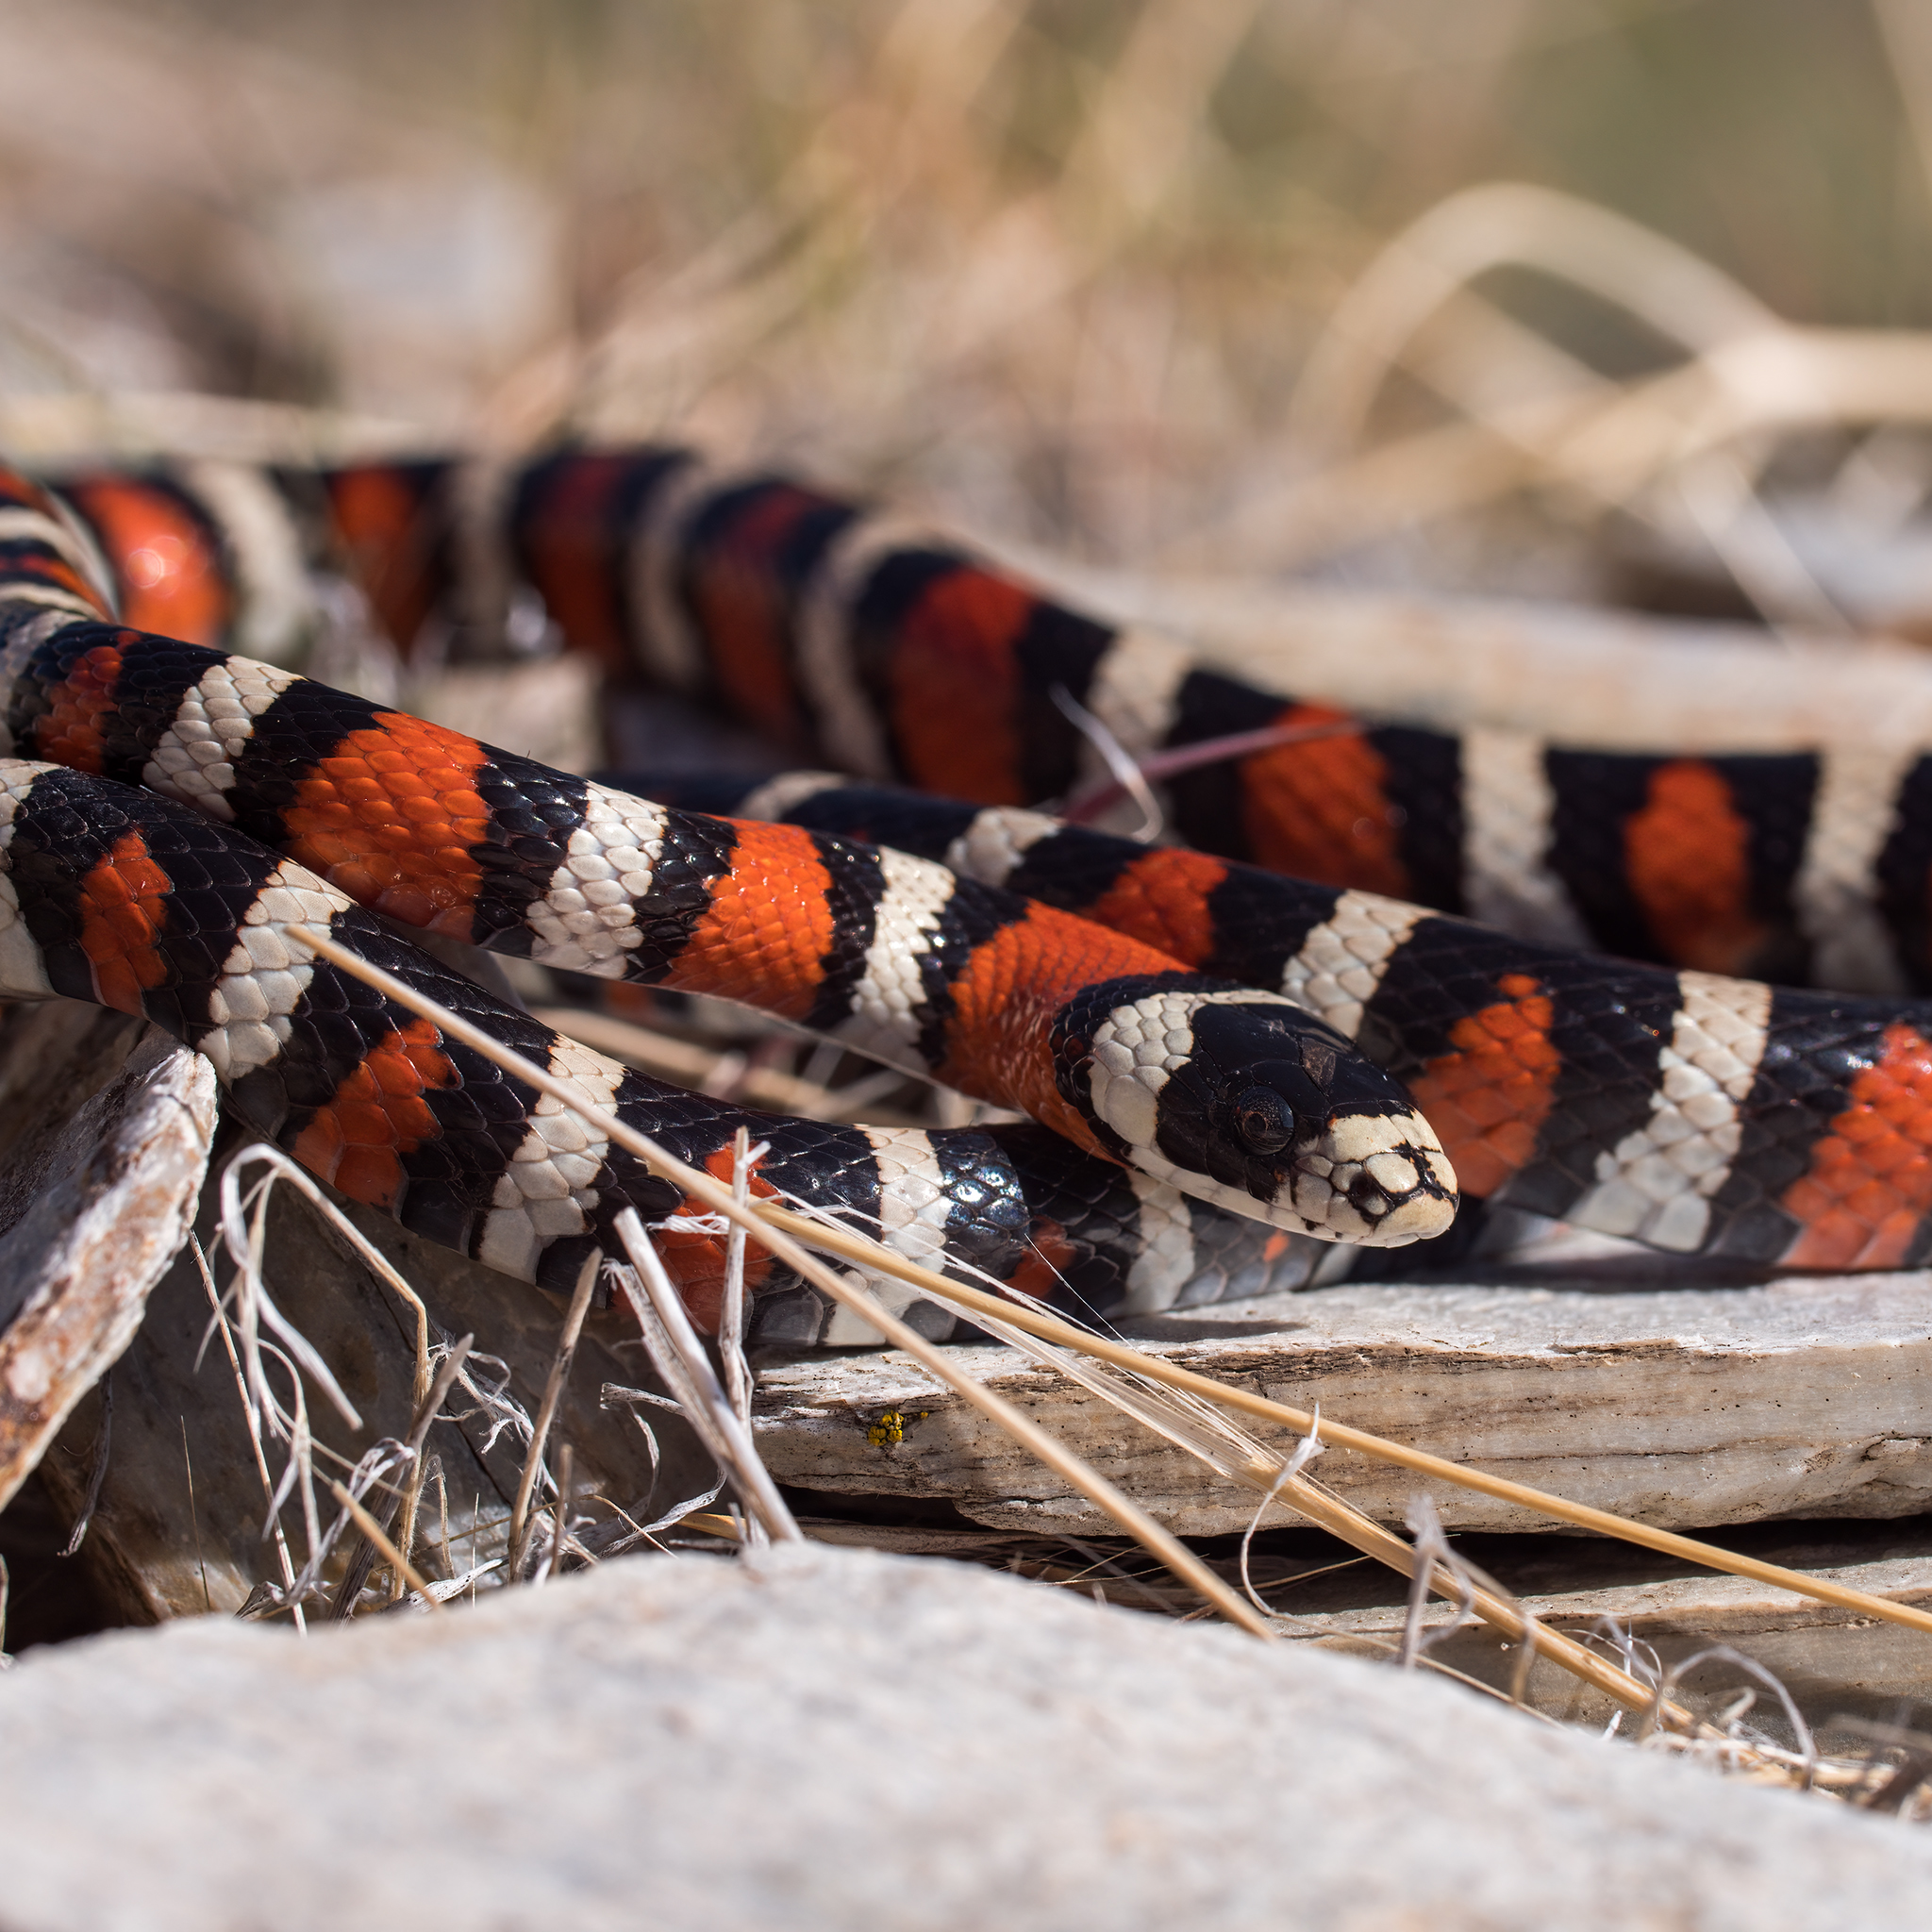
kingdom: Animalia
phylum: Chordata
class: Squamata
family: Colubridae
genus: Lampropeltis
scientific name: Lampropeltis pyromelana
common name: Sonoran mountain kingsnake
